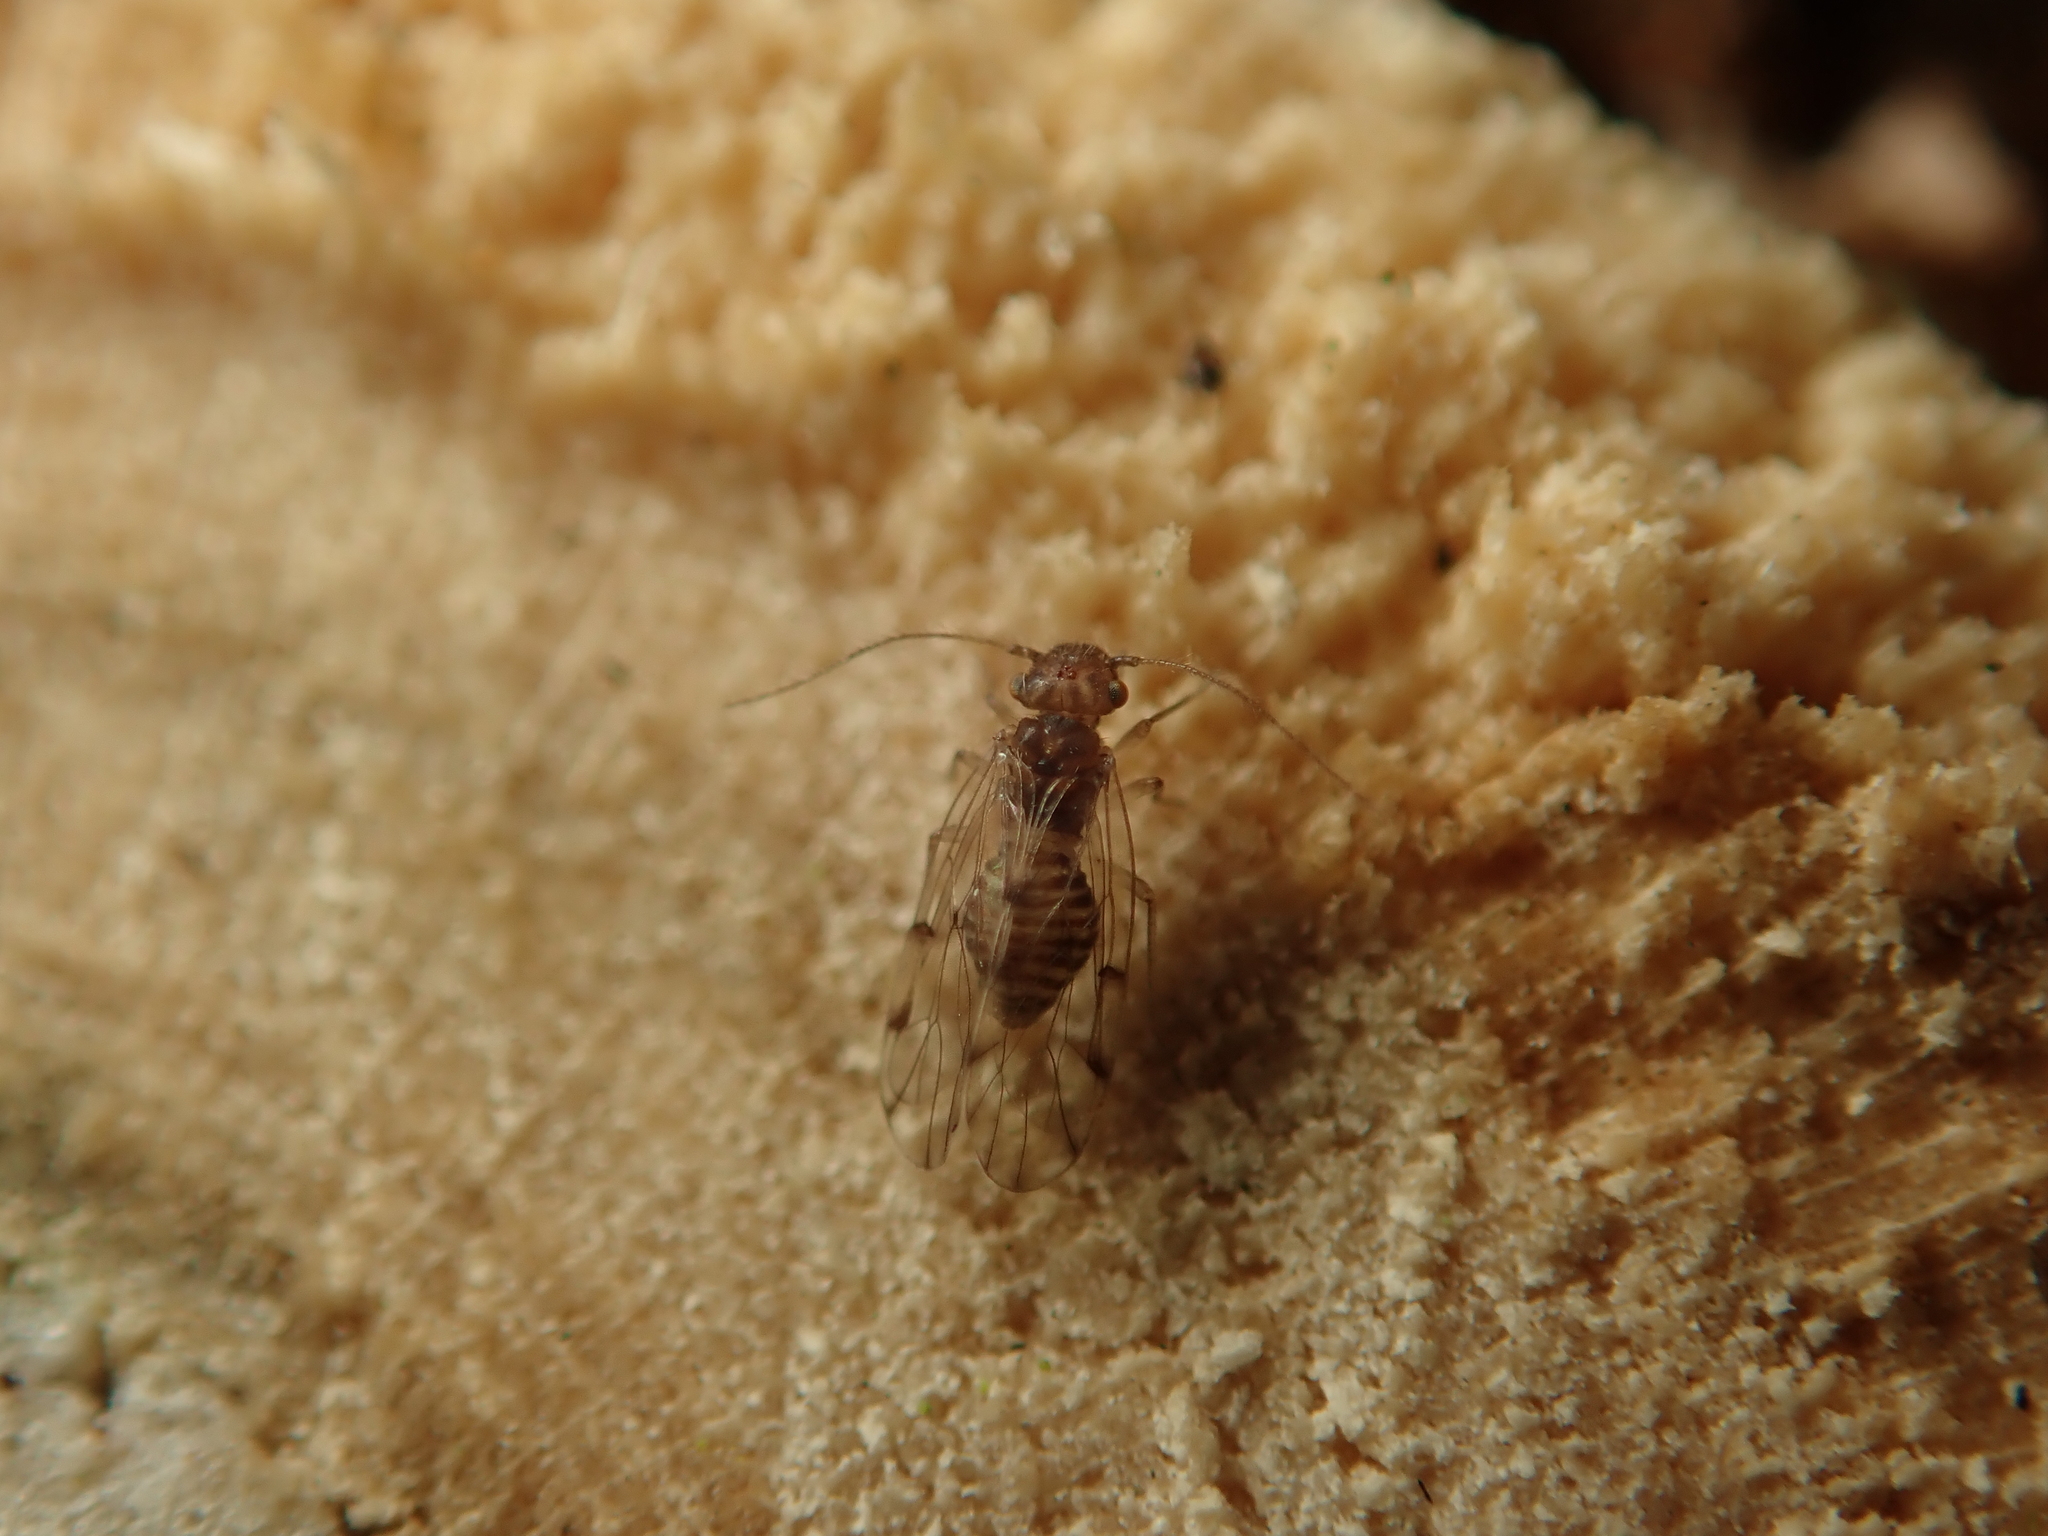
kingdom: Animalia
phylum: Arthropoda
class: Insecta
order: Psocodea
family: Ectopsocidae
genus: Ectopsocus
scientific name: Ectopsocus briggsi
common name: Ectopsocid
